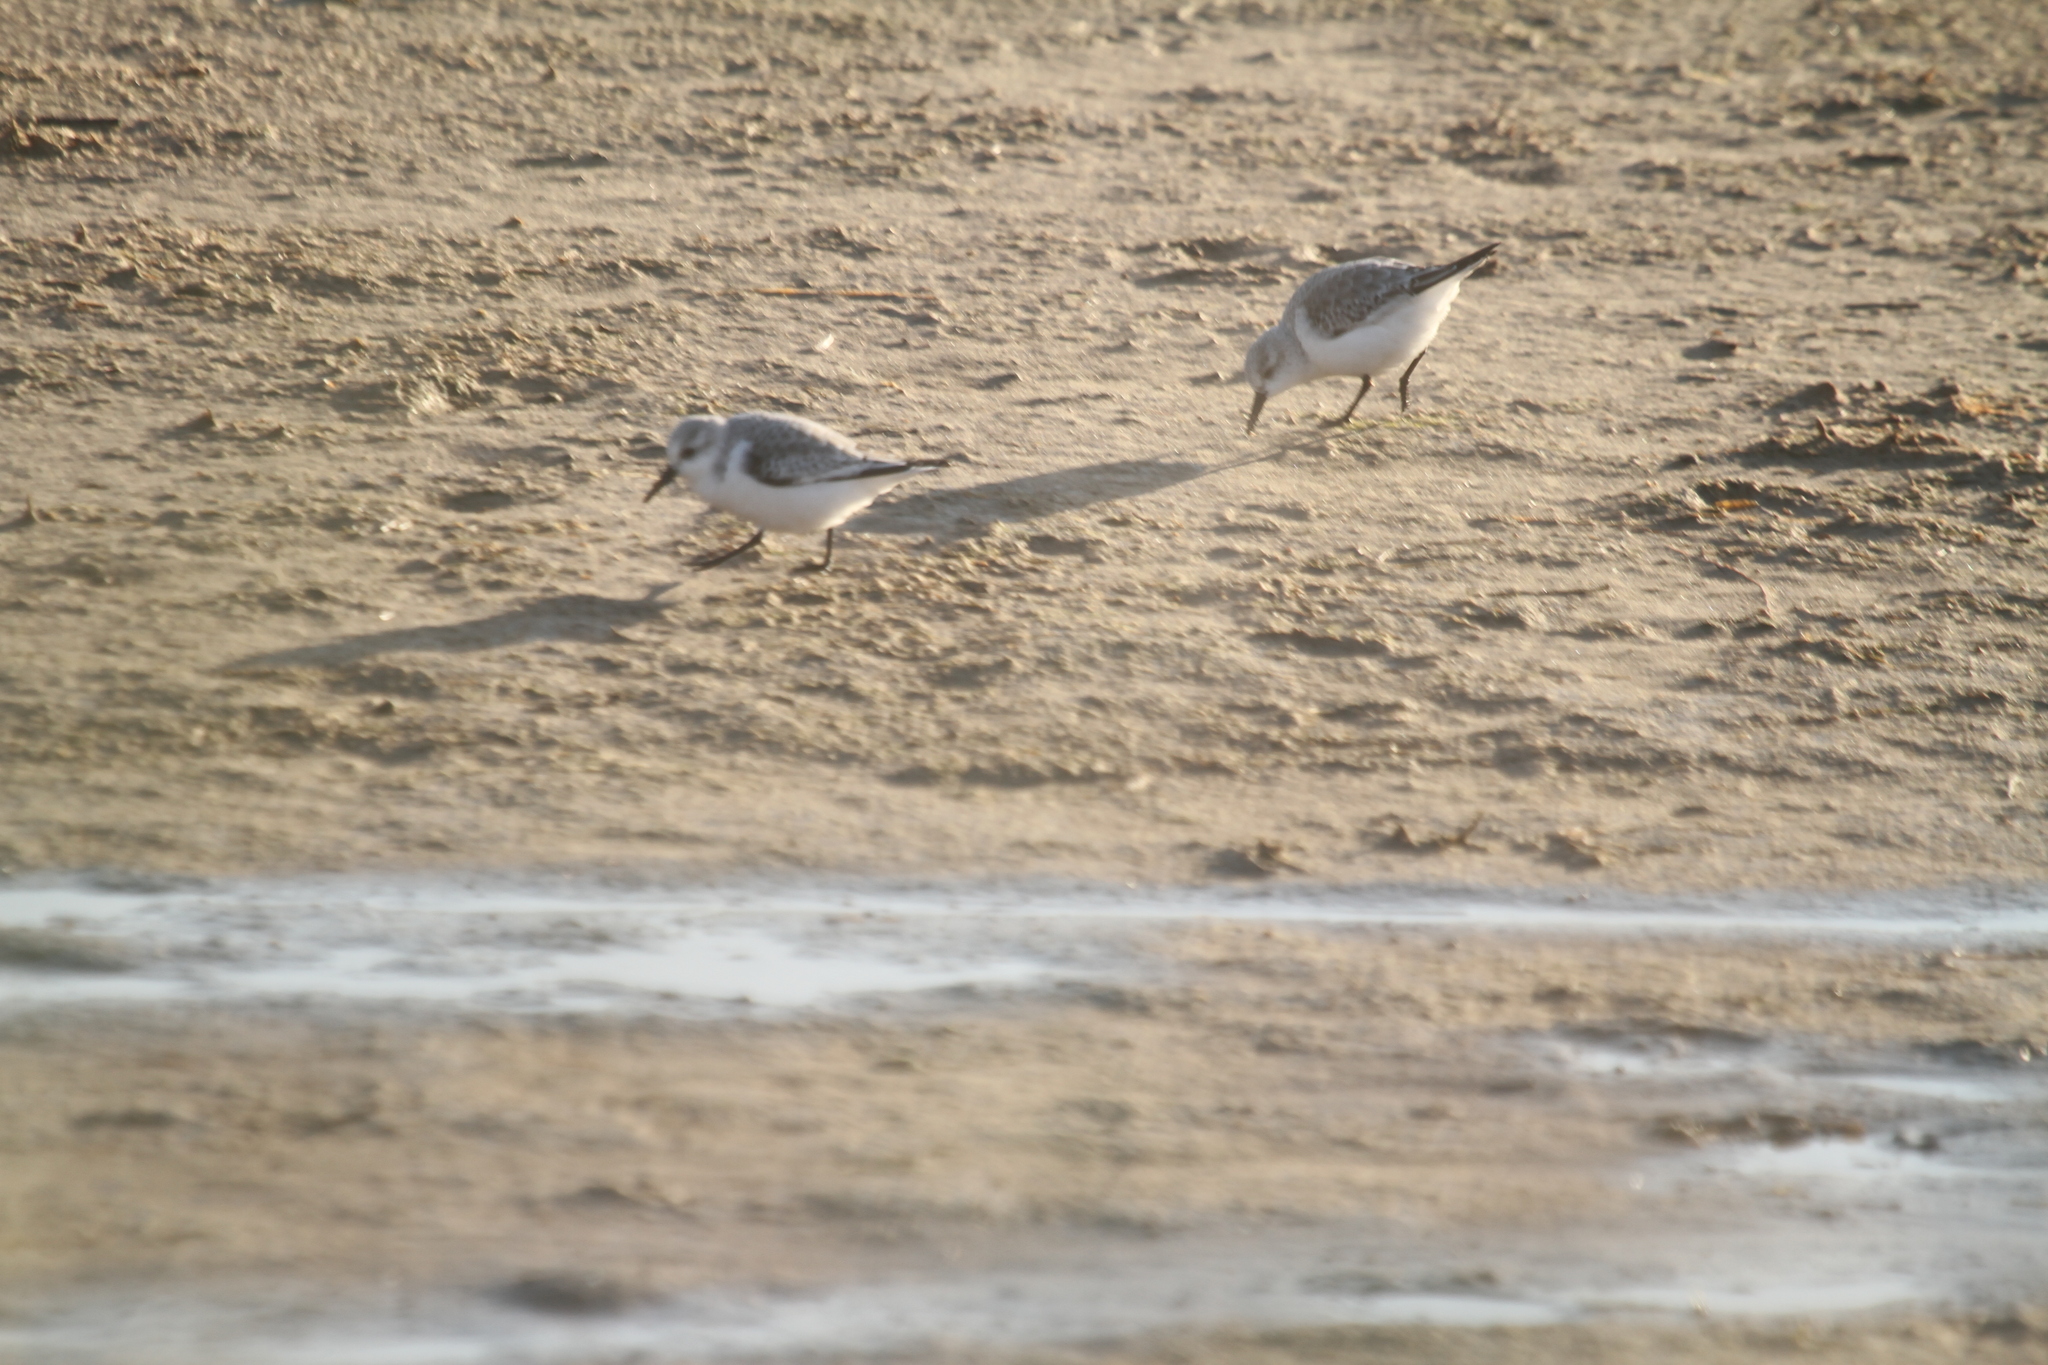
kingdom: Animalia
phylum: Chordata
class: Aves
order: Charadriiformes
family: Scolopacidae
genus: Calidris
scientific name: Calidris alba
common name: Sanderling
